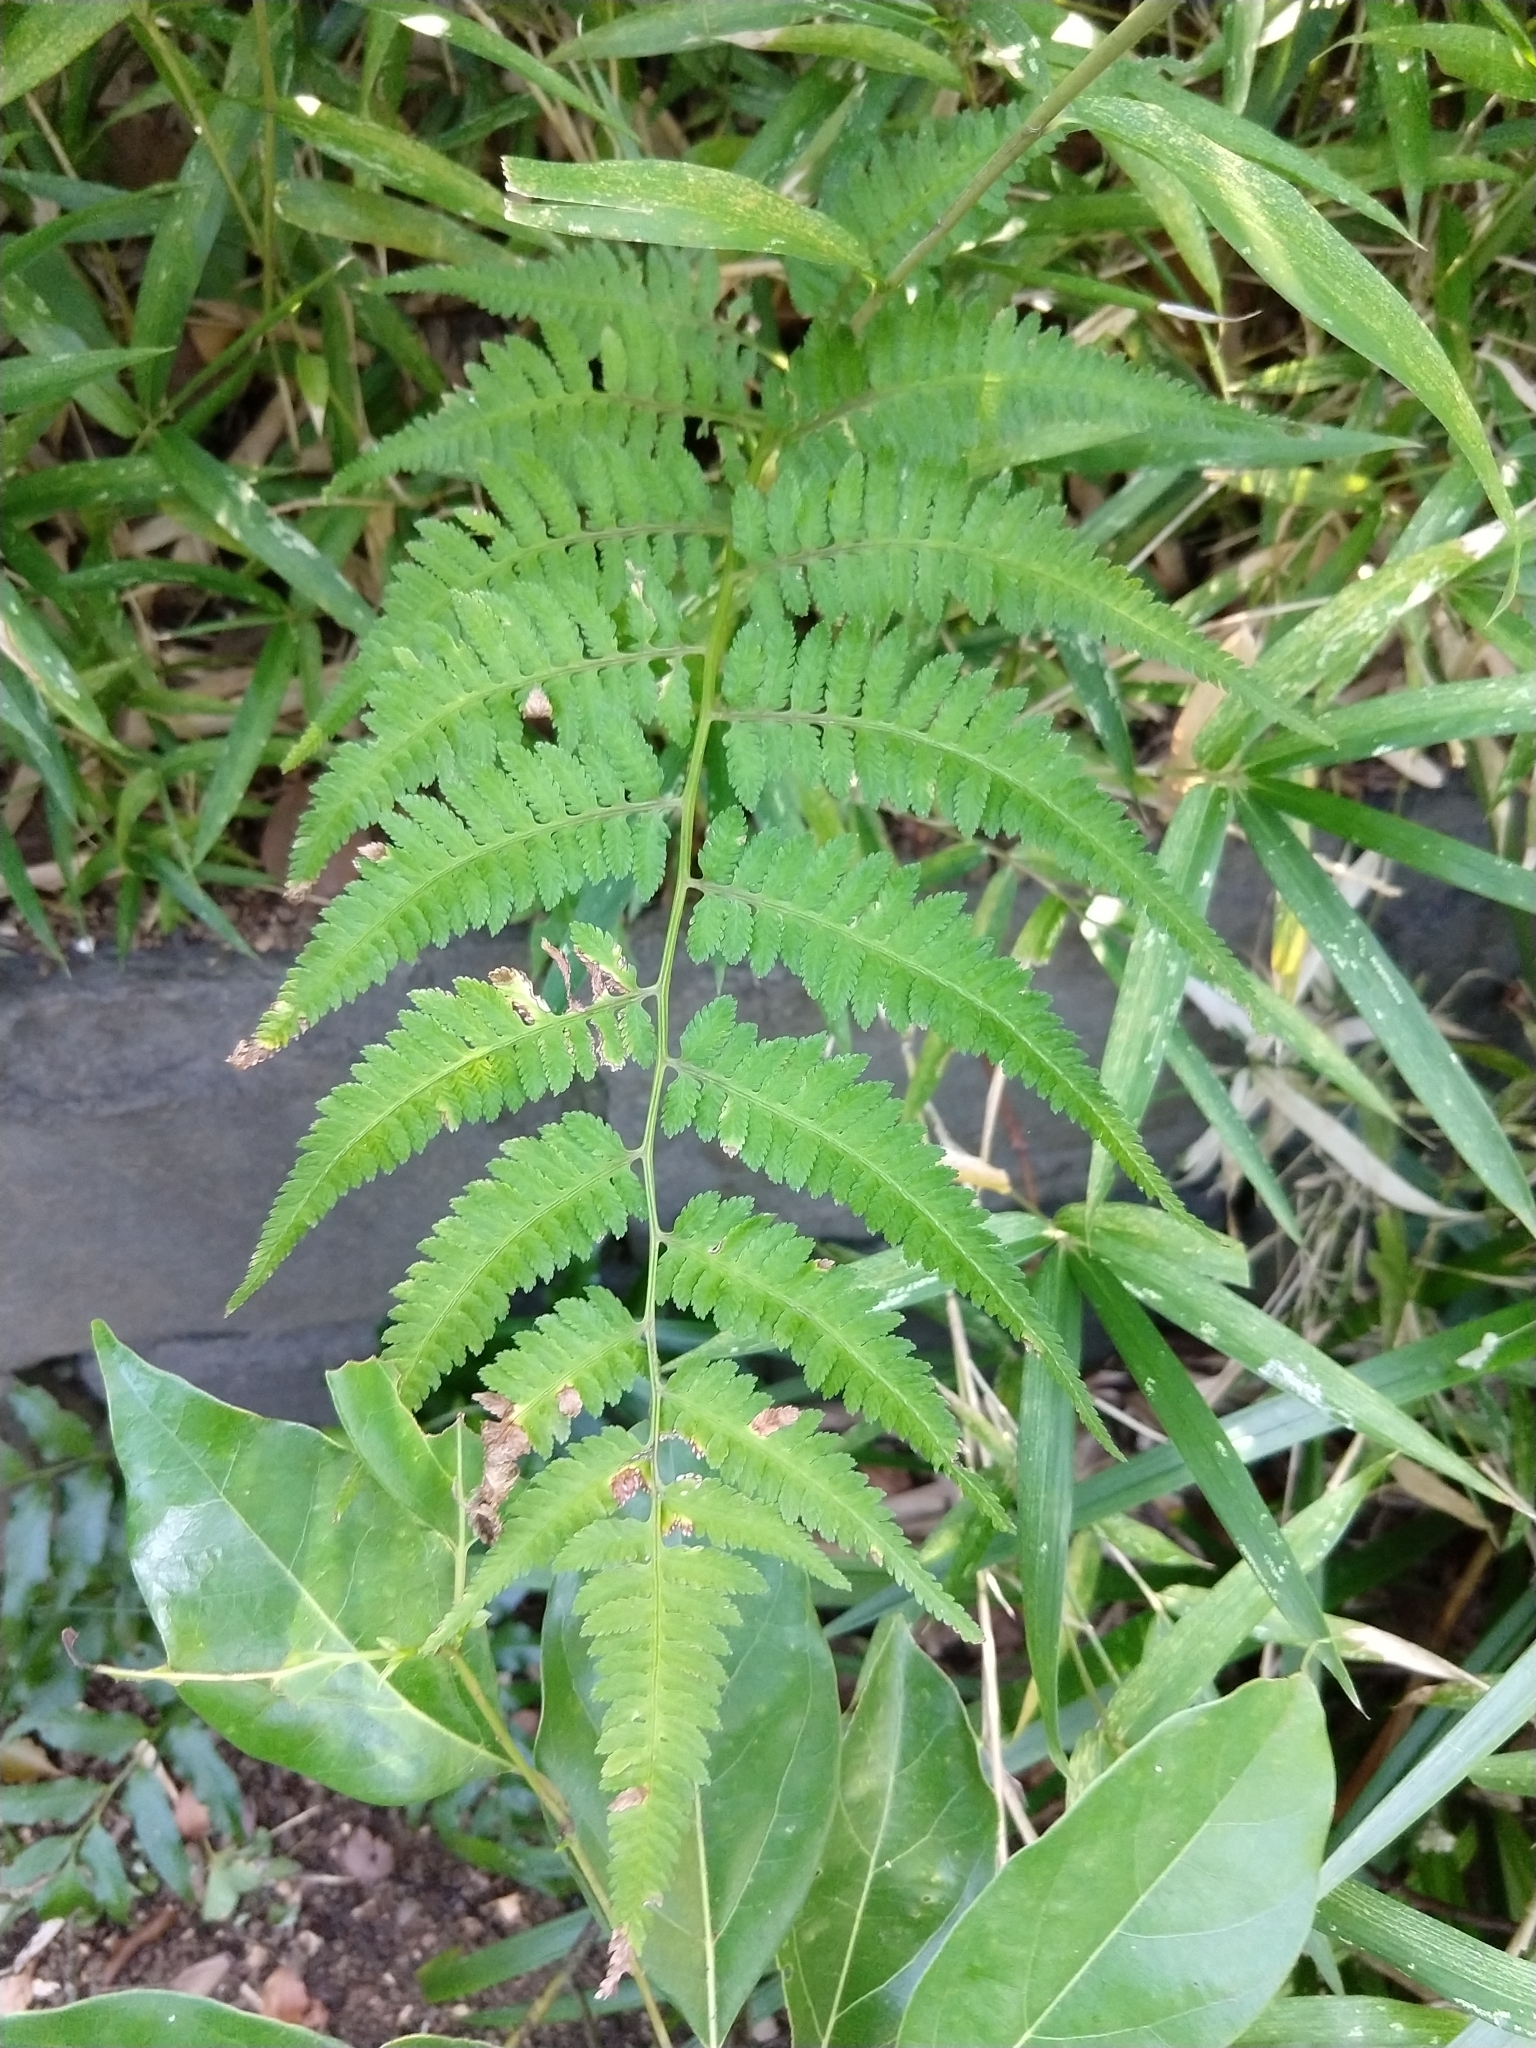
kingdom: Plantae
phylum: Tracheophyta
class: Polypodiopsida
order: Polypodiales
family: Athyriaceae
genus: Anisocampium
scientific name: Anisocampium niponicum
